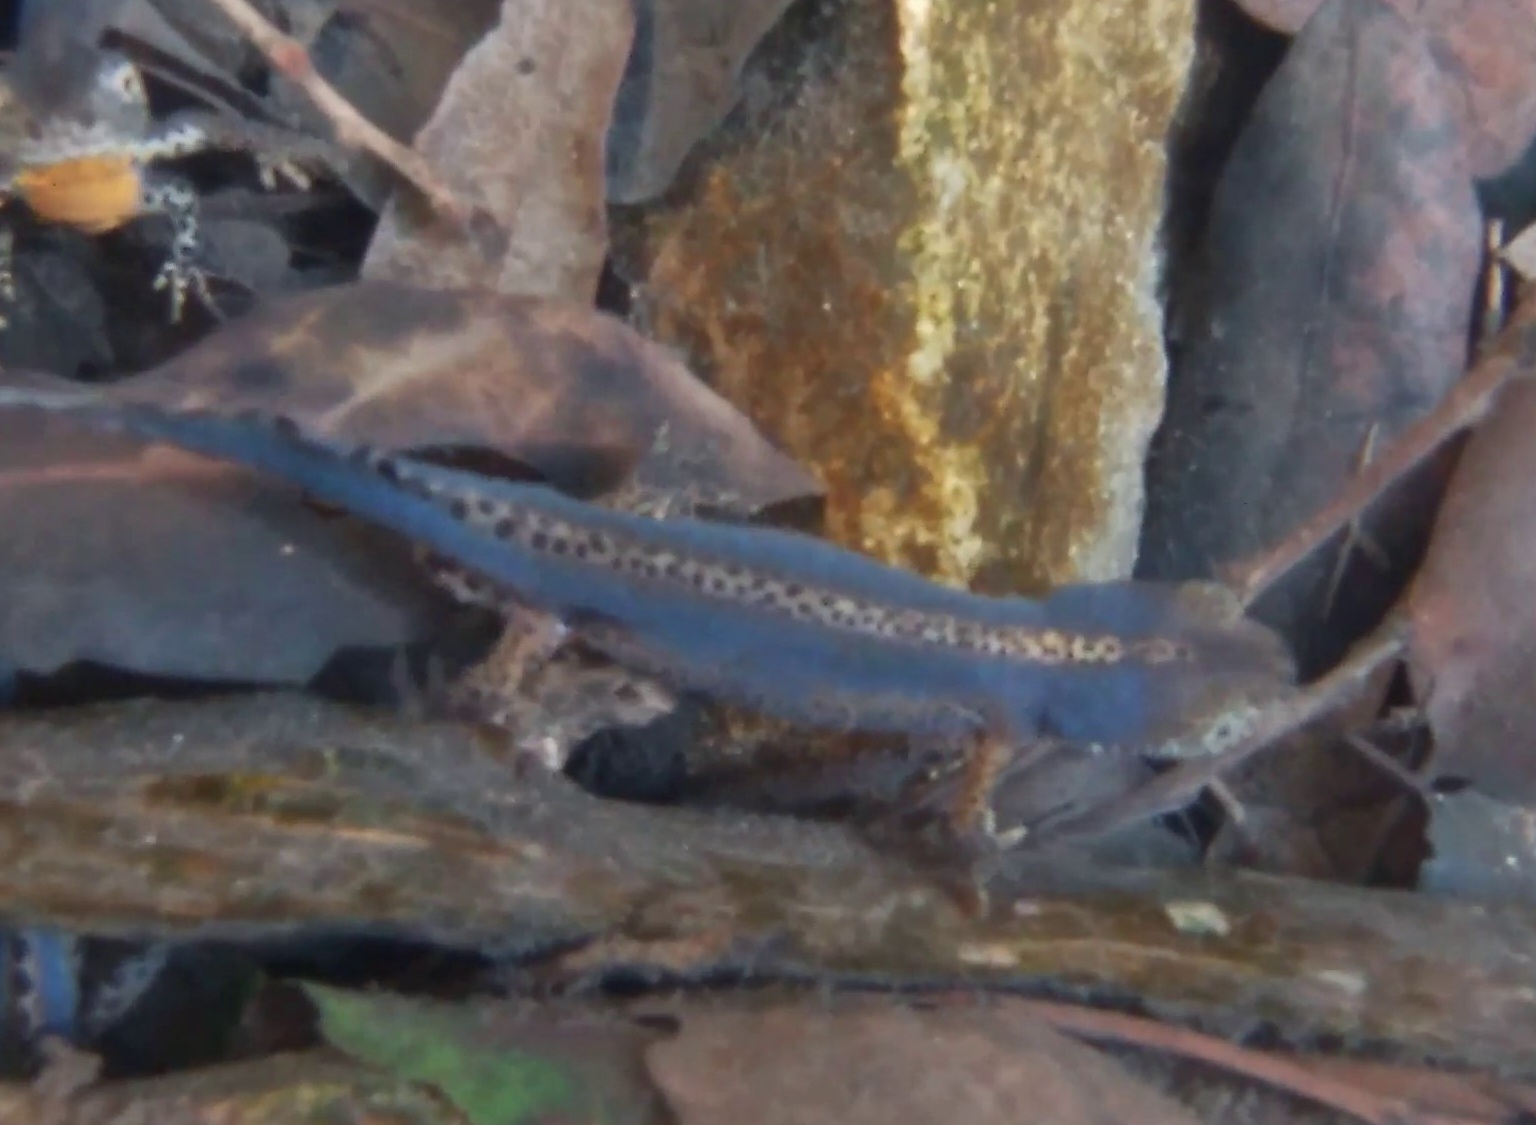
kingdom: Animalia
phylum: Chordata
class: Amphibia
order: Caudata
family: Salamandridae
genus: Ichthyosaura
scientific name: Ichthyosaura alpestris
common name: Alpine newt
